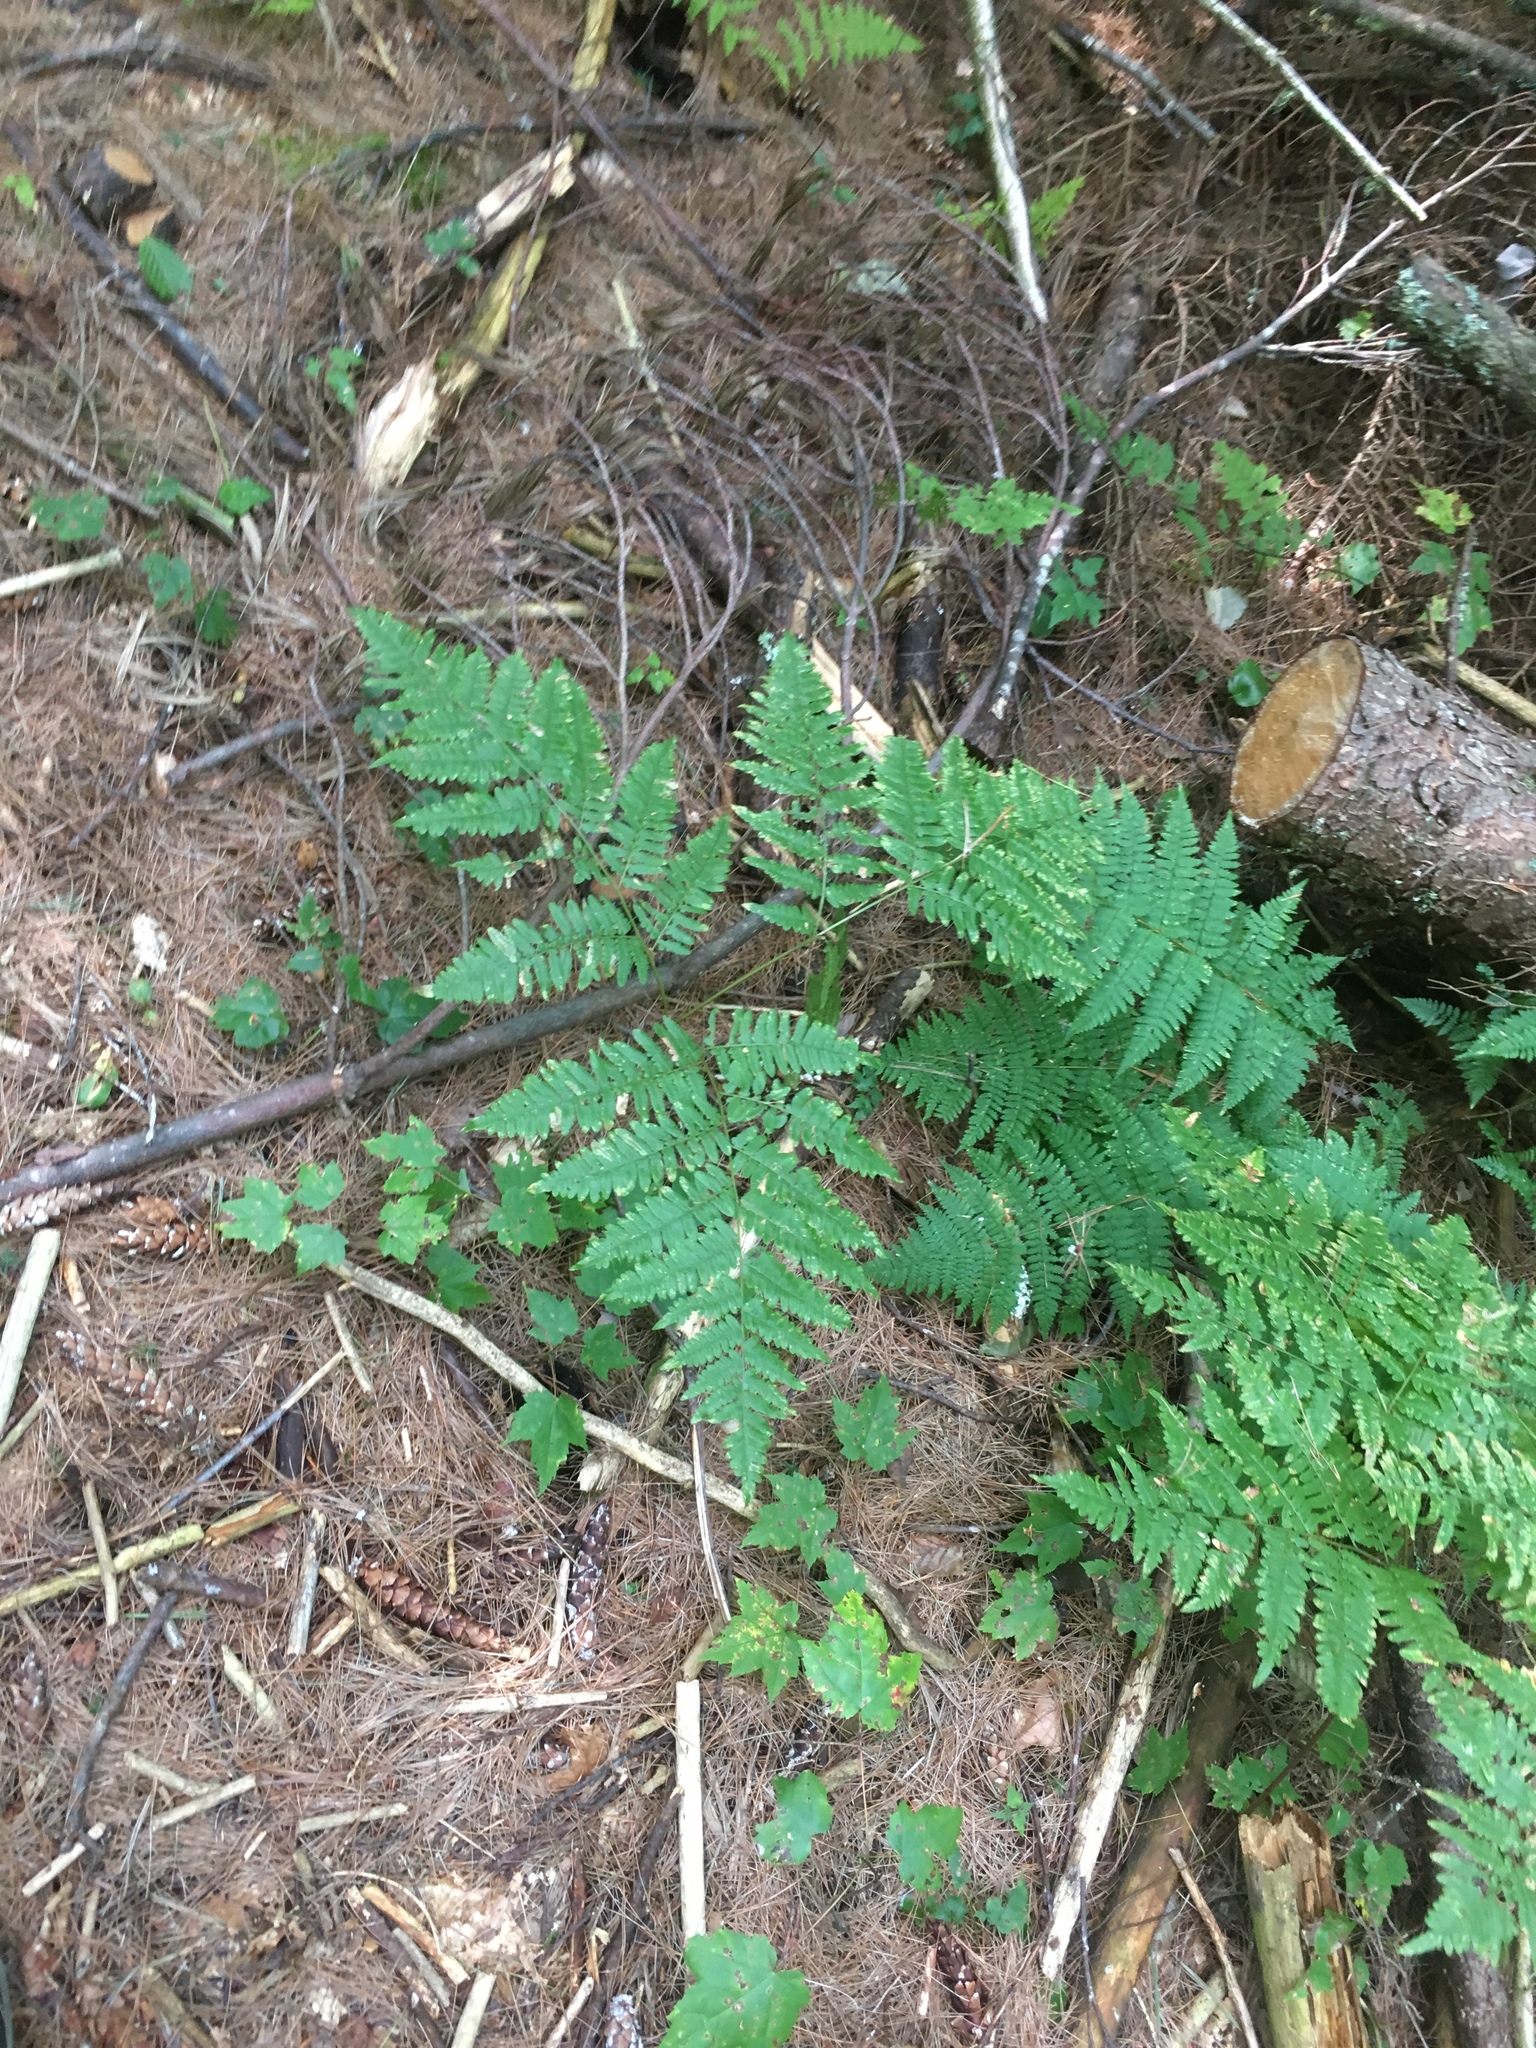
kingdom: Plantae
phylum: Tracheophyta
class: Polypodiopsida
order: Polypodiales
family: Dennstaedtiaceae
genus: Pteridium
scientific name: Pteridium aquilinum
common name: Bracken
